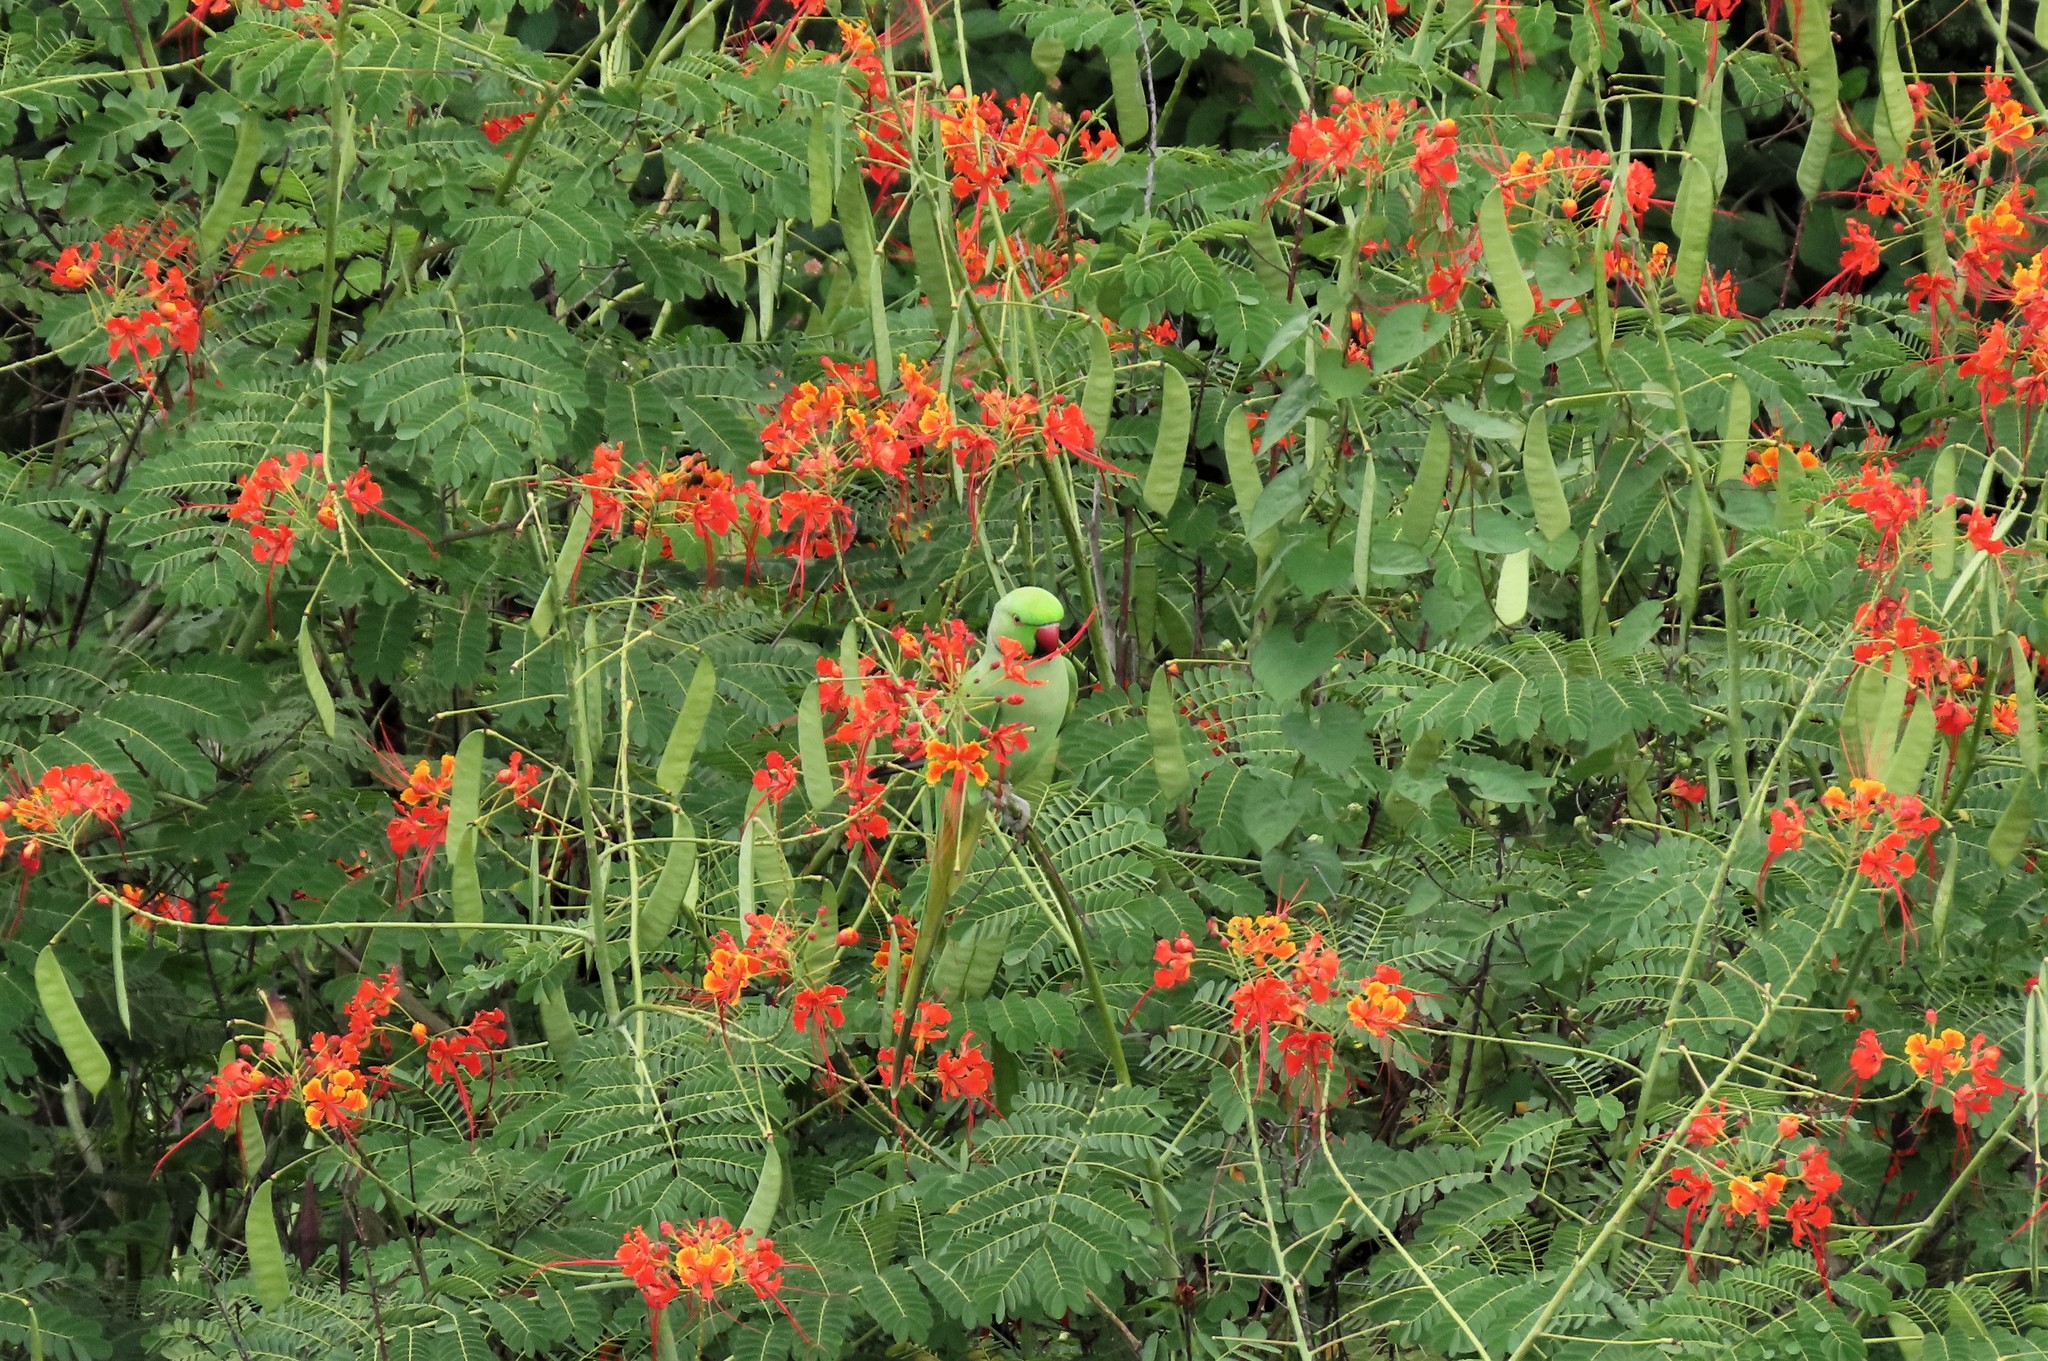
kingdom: Plantae
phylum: Tracheophyta
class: Magnoliopsida
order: Fabales
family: Fabaceae
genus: Caesalpinia
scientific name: Caesalpinia pulcherrima
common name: Pride-of-barbados
